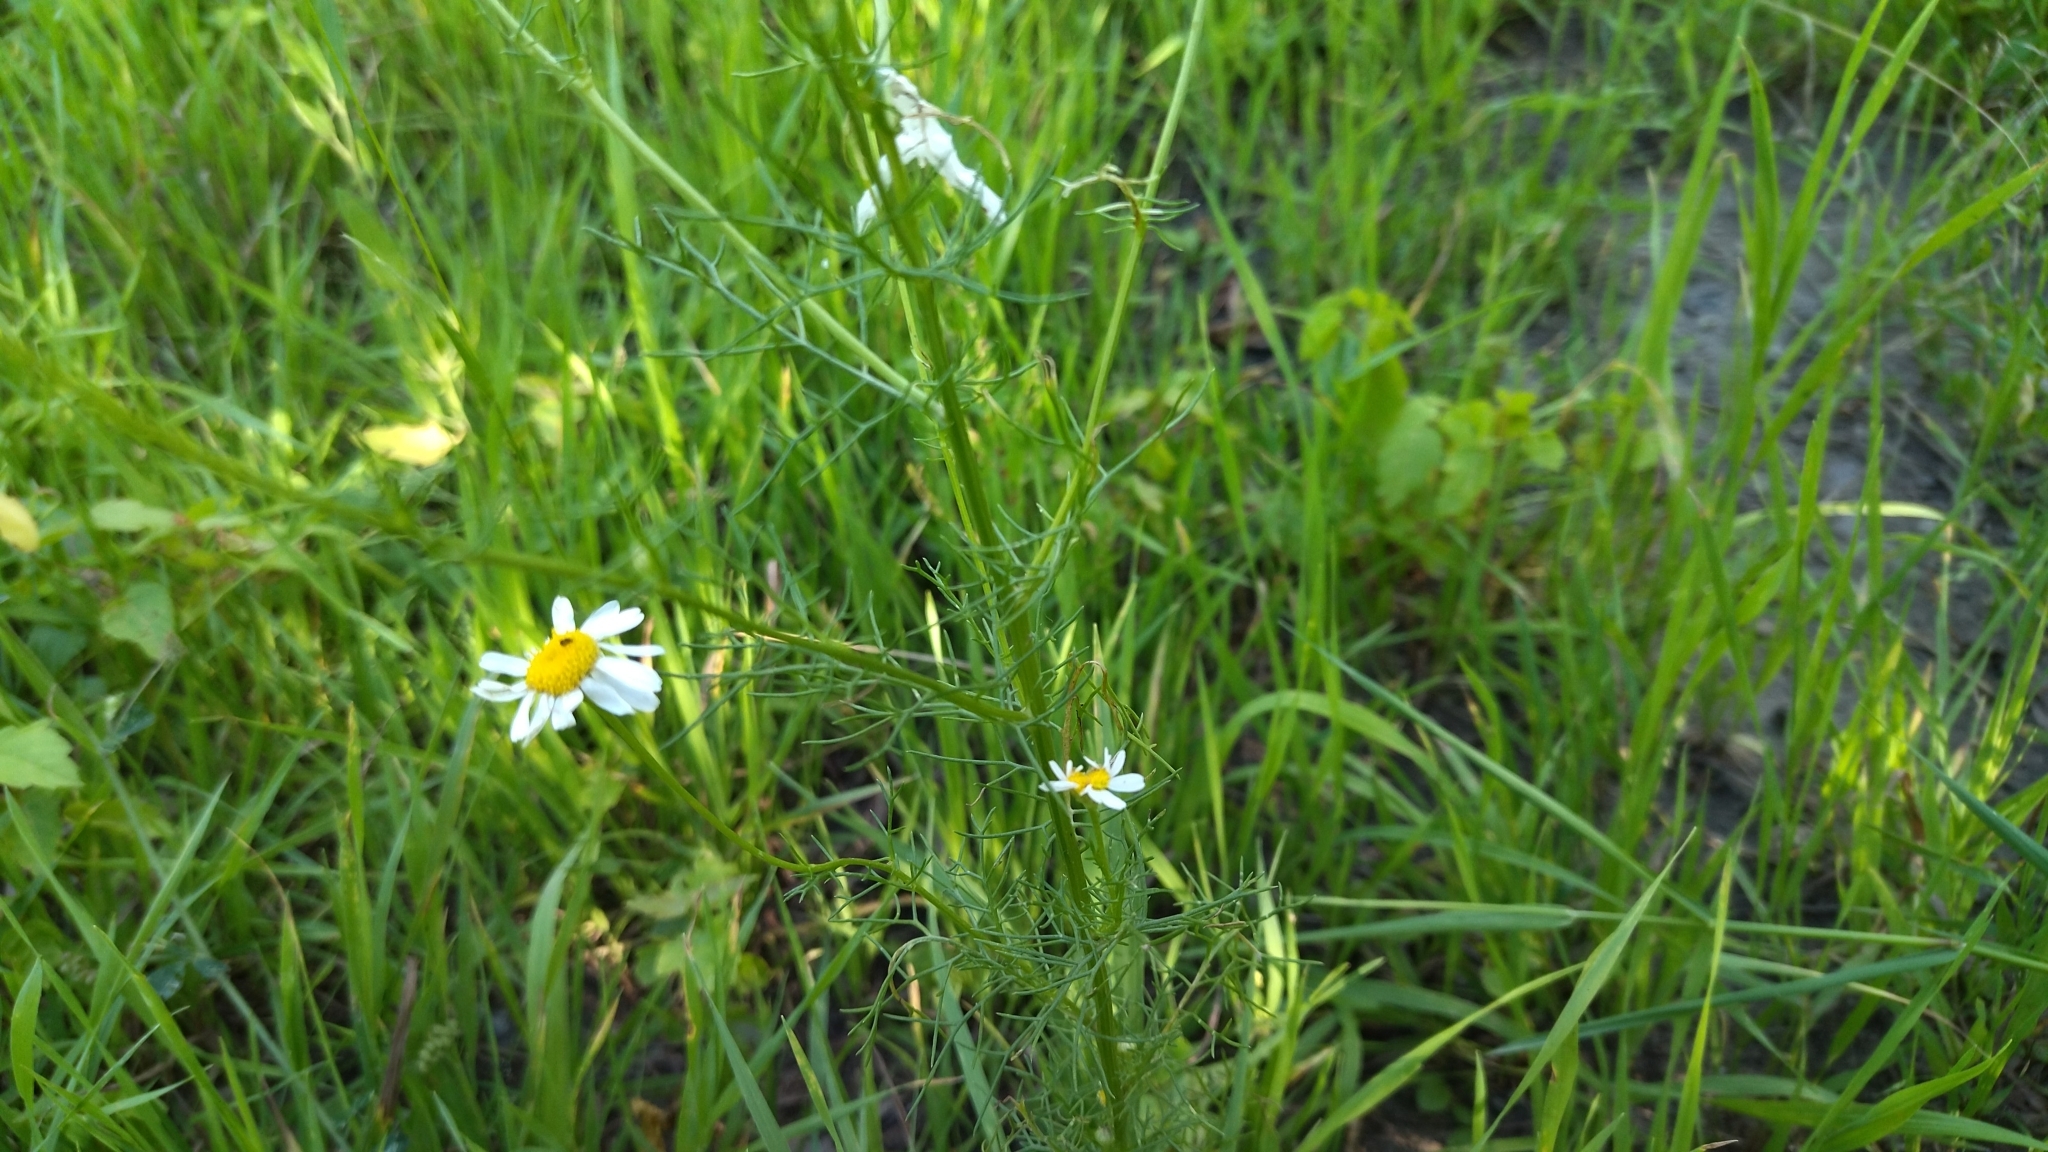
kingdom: Plantae
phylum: Tracheophyta
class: Magnoliopsida
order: Asterales
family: Asteraceae
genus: Tripleurospermum
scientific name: Tripleurospermum inodorum
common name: Scentless mayweed
